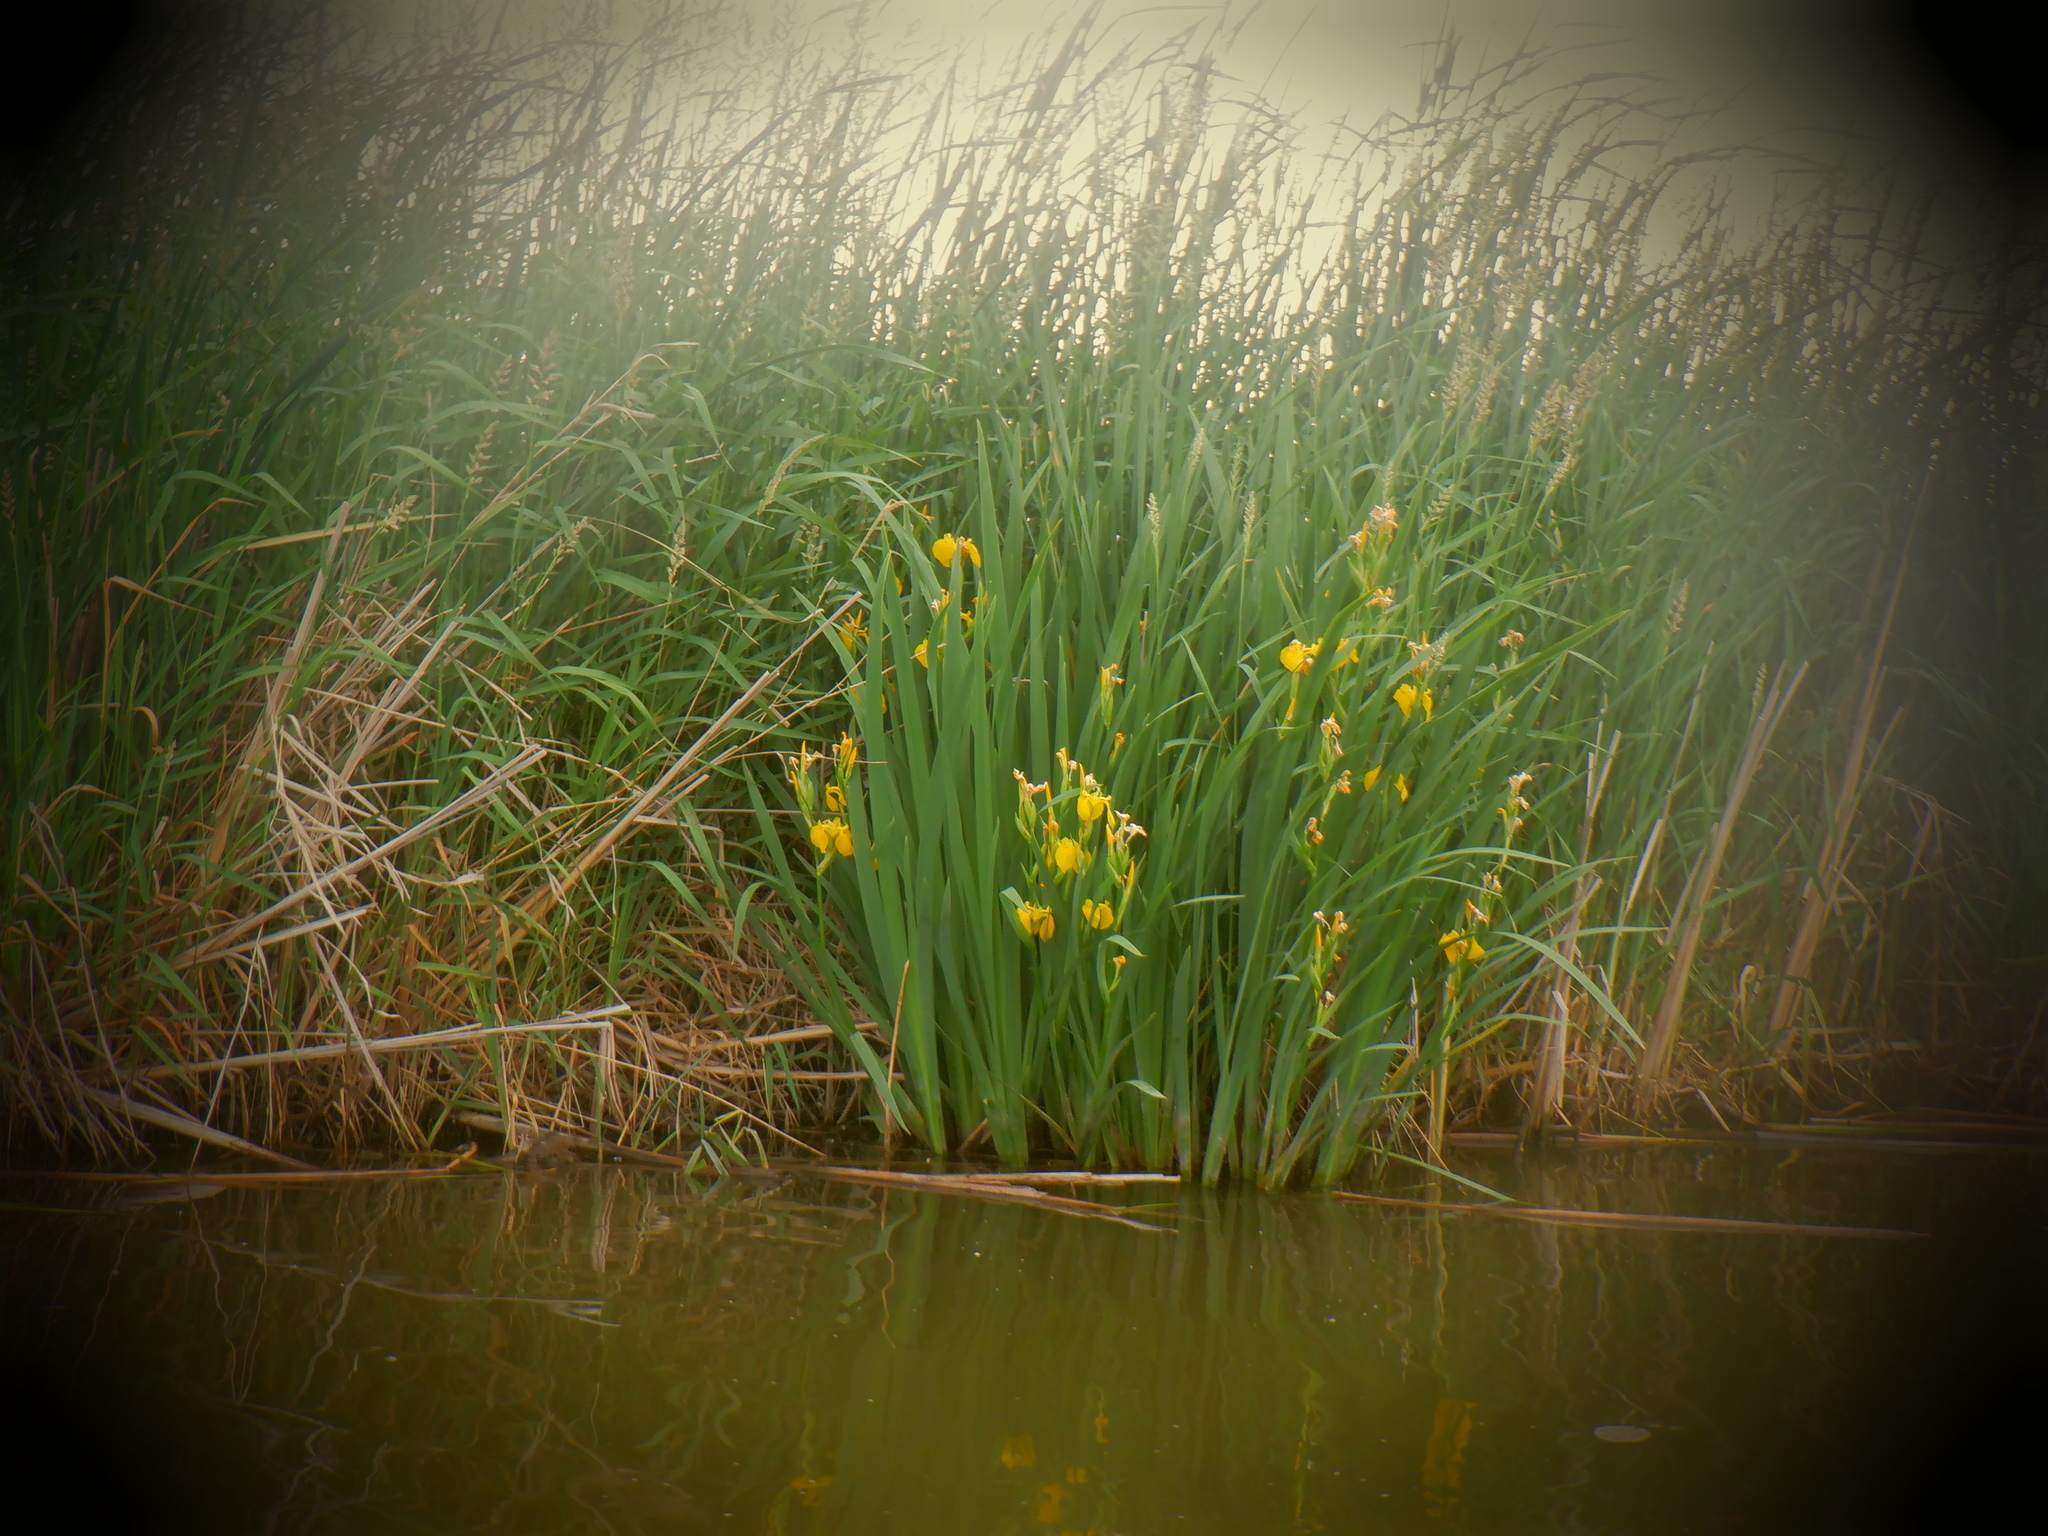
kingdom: Plantae
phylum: Tracheophyta
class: Liliopsida
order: Asparagales
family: Iridaceae
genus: Iris
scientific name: Iris pseudacorus
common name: Yellow flag
